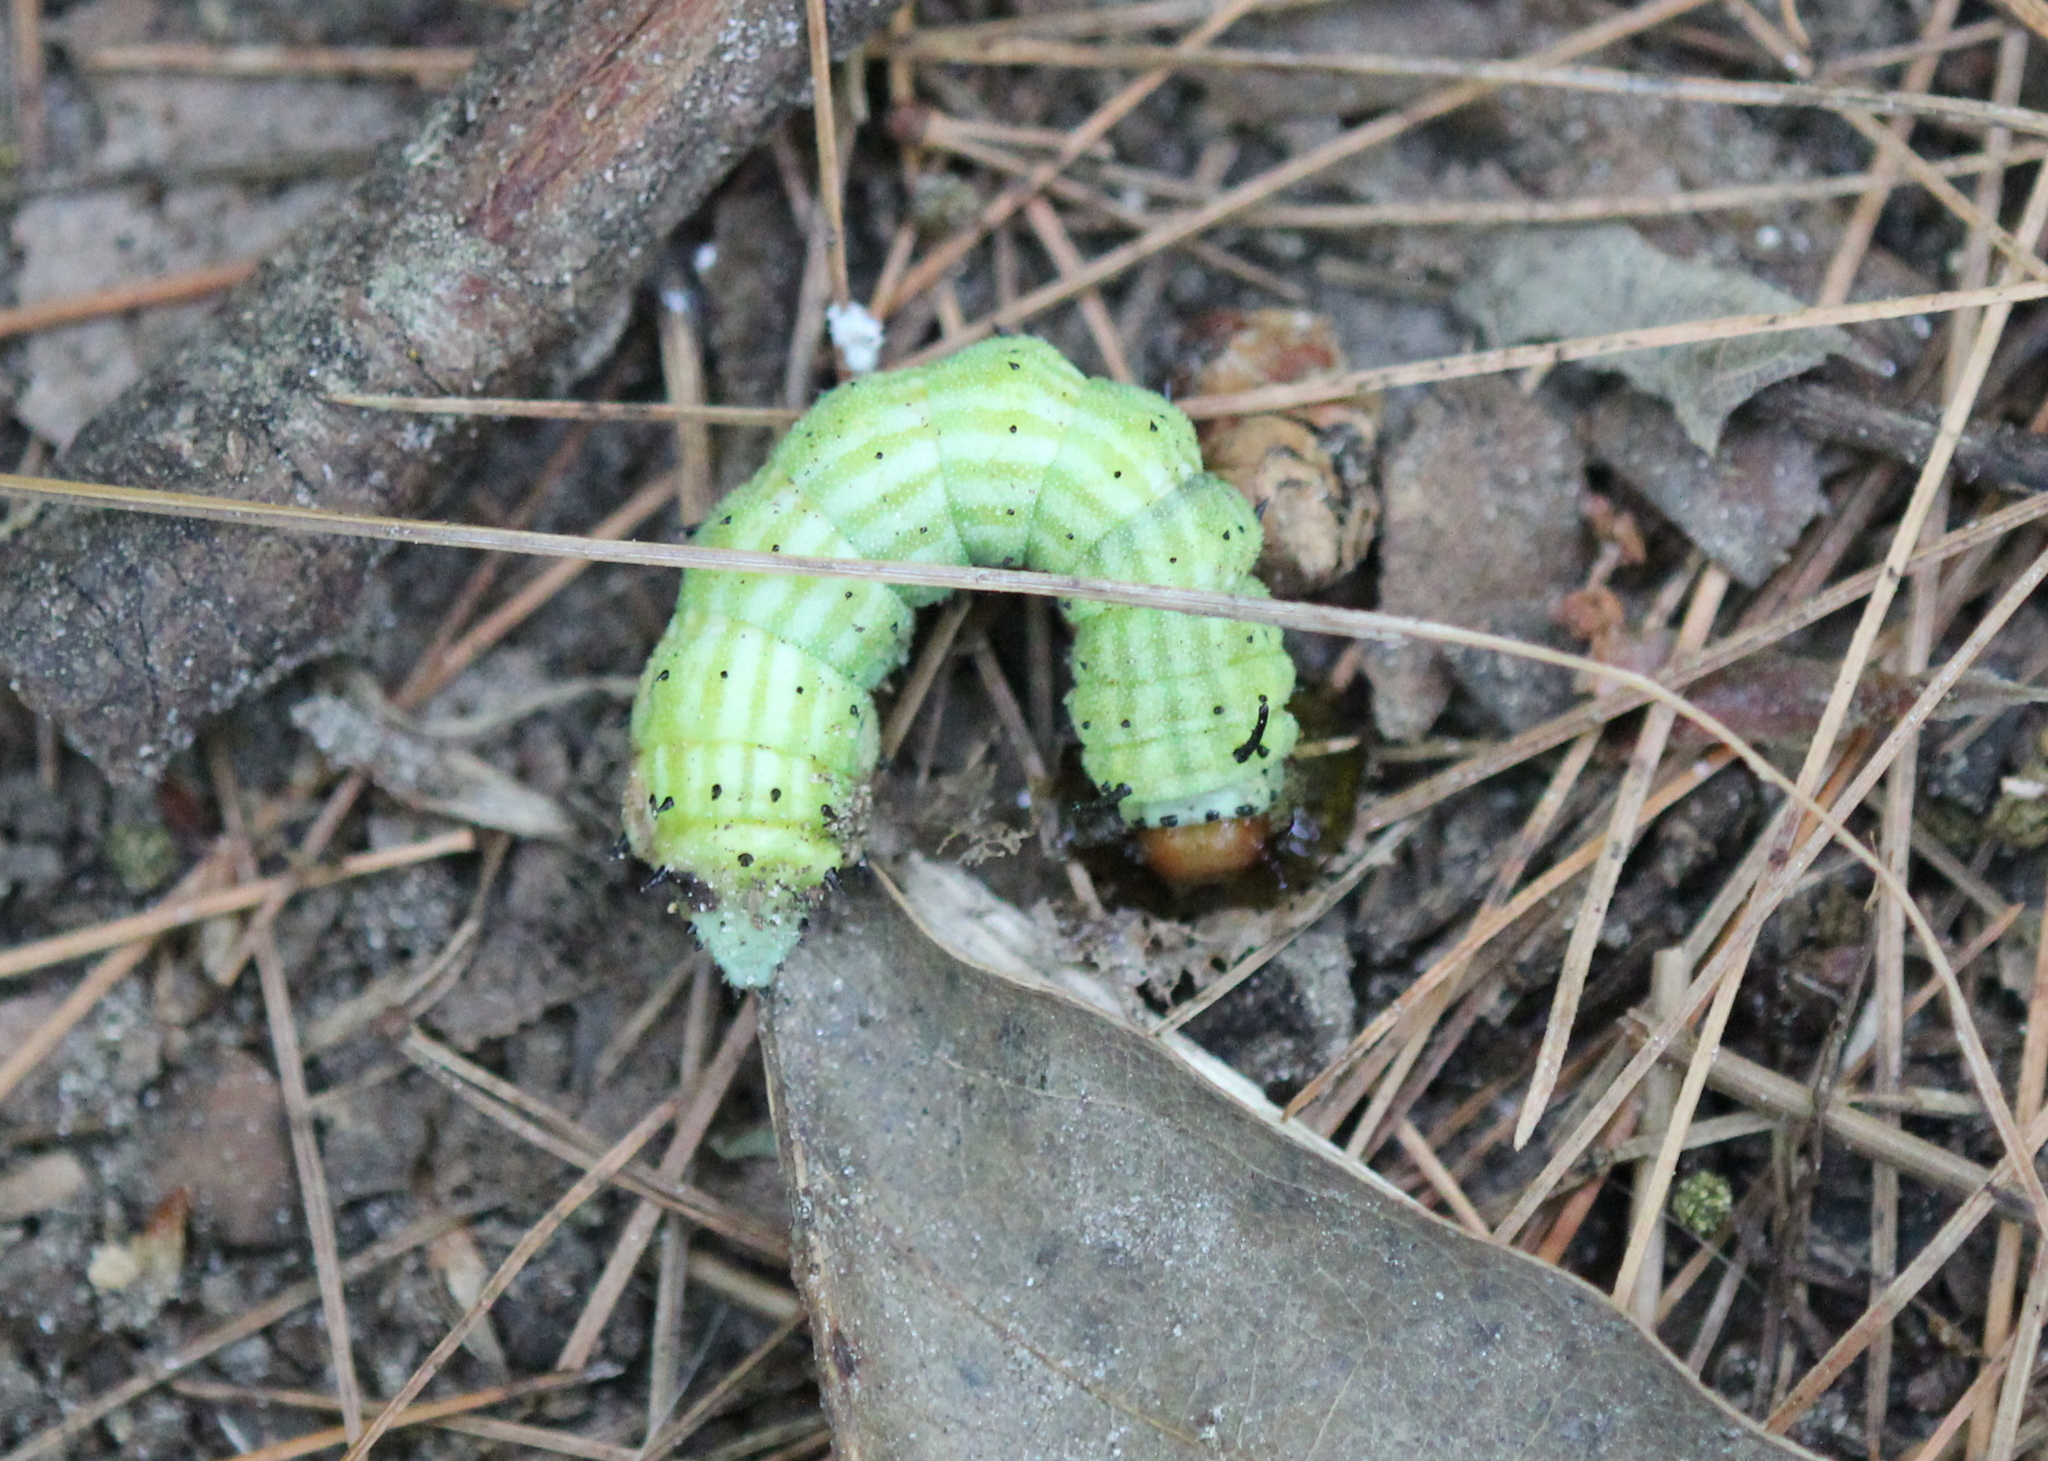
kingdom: Animalia
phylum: Arthropoda
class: Insecta
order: Lepidoptera
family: Saturniidae
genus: Dryocampa
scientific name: Dryocampa rubicunda
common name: Rosy maple moth
